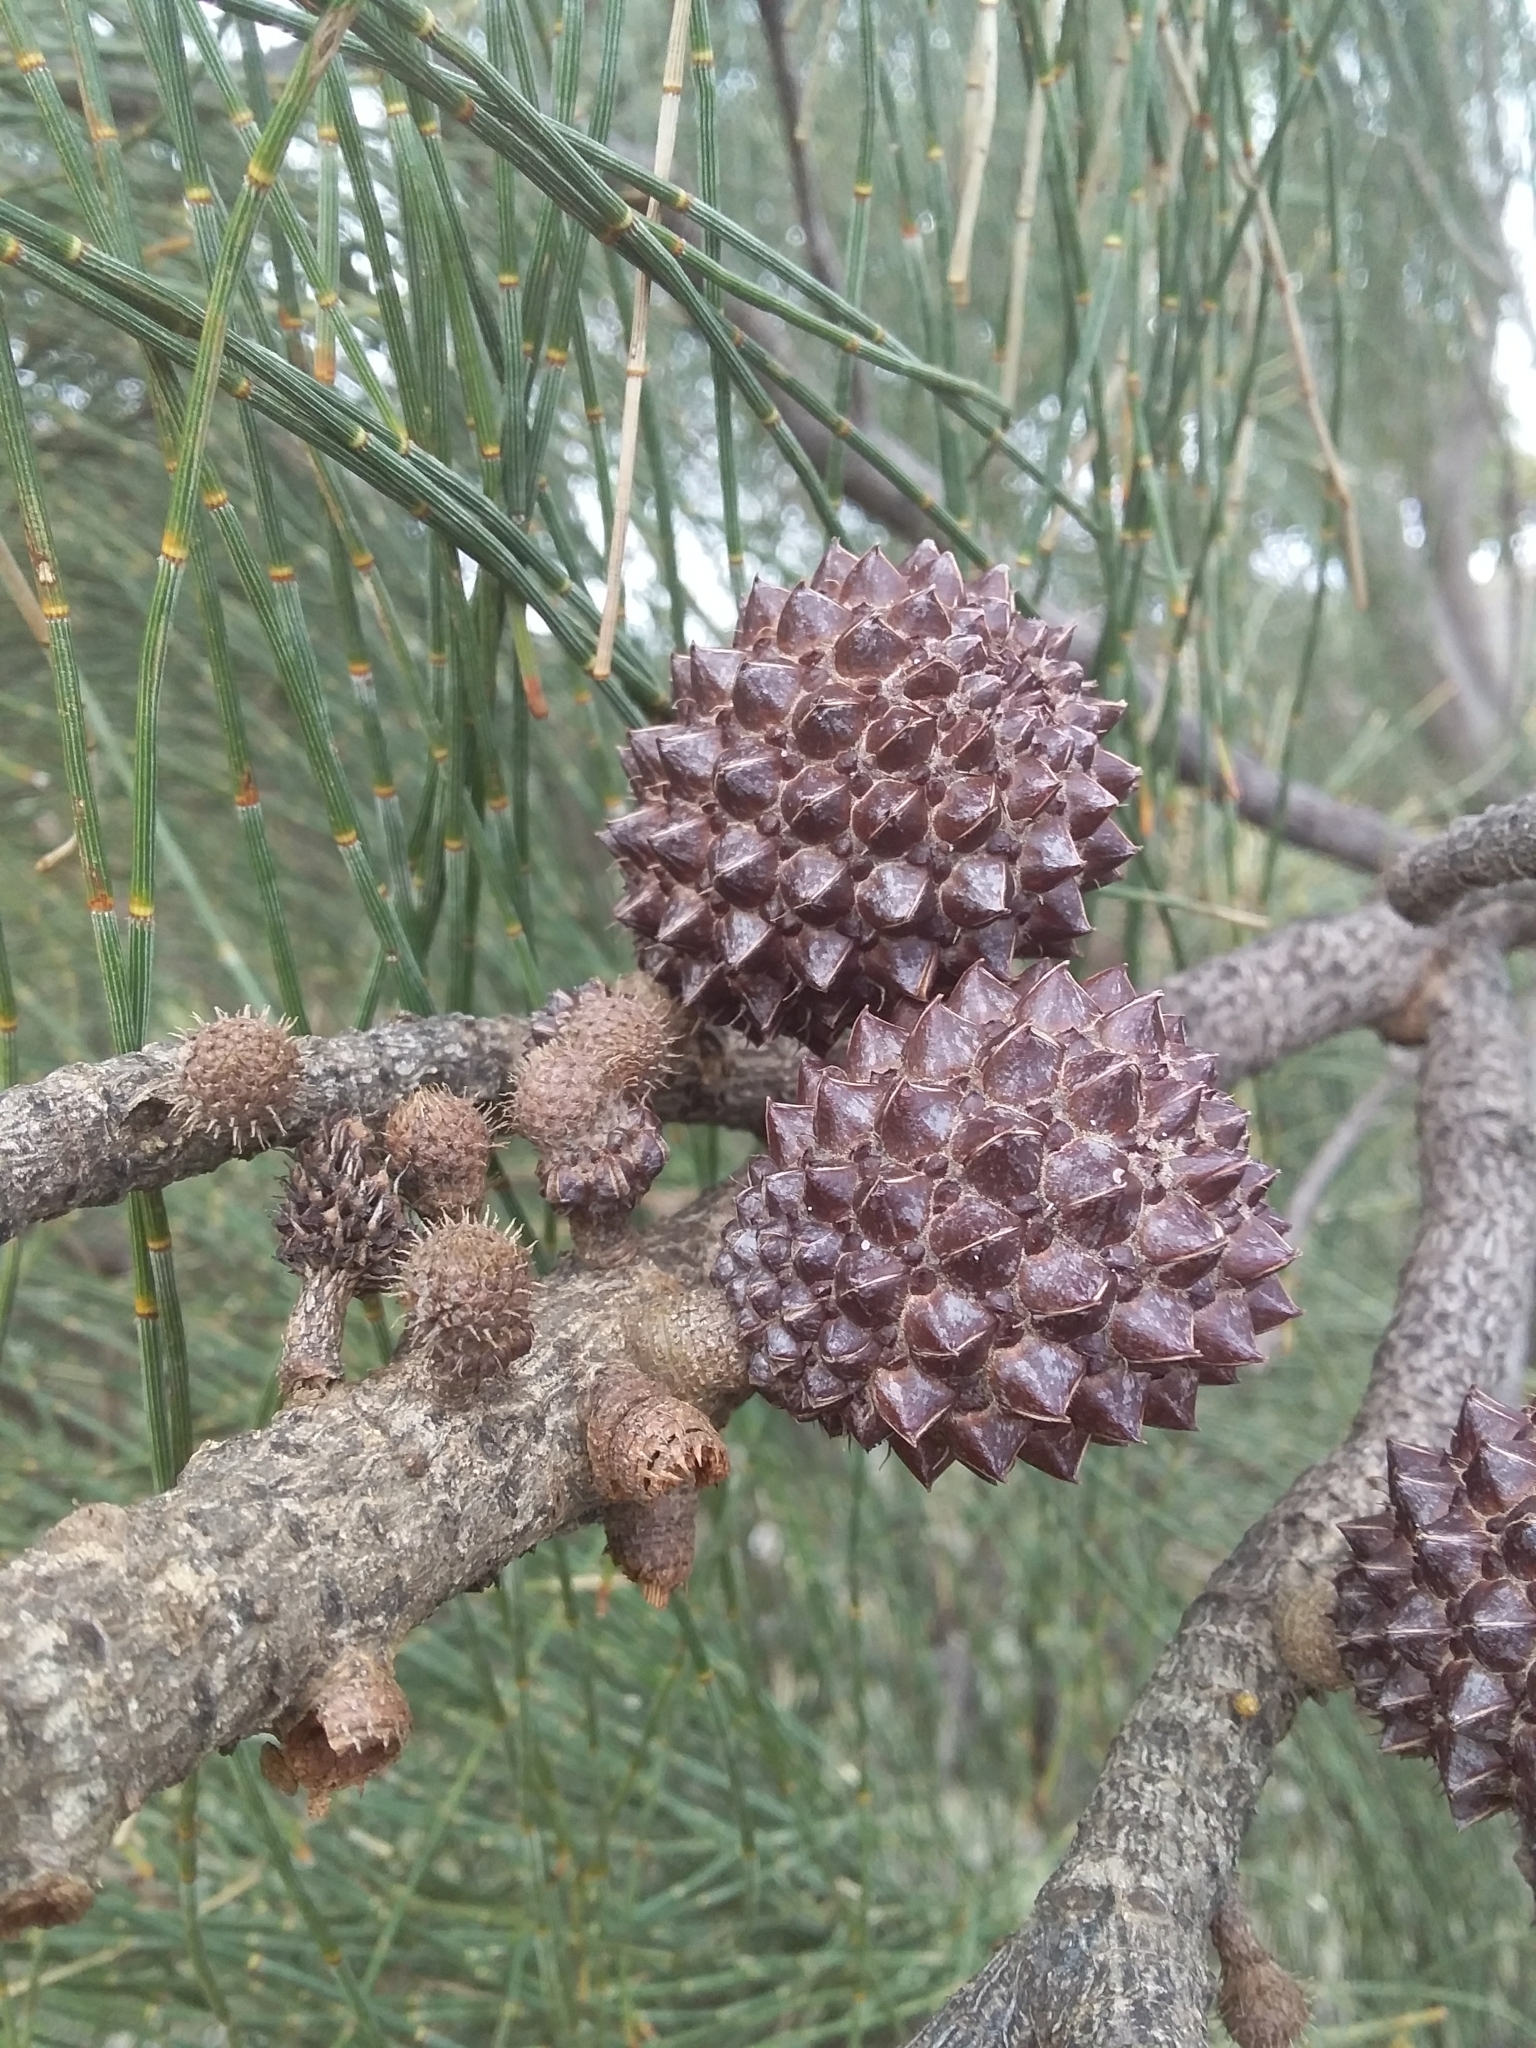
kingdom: Plantae
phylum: Tracheophyta
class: Magnoliopsida
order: Fagales
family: Casuarinaceae
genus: Allocasuarina
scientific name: Allocasuarina verticillata
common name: Drooping she-oak
